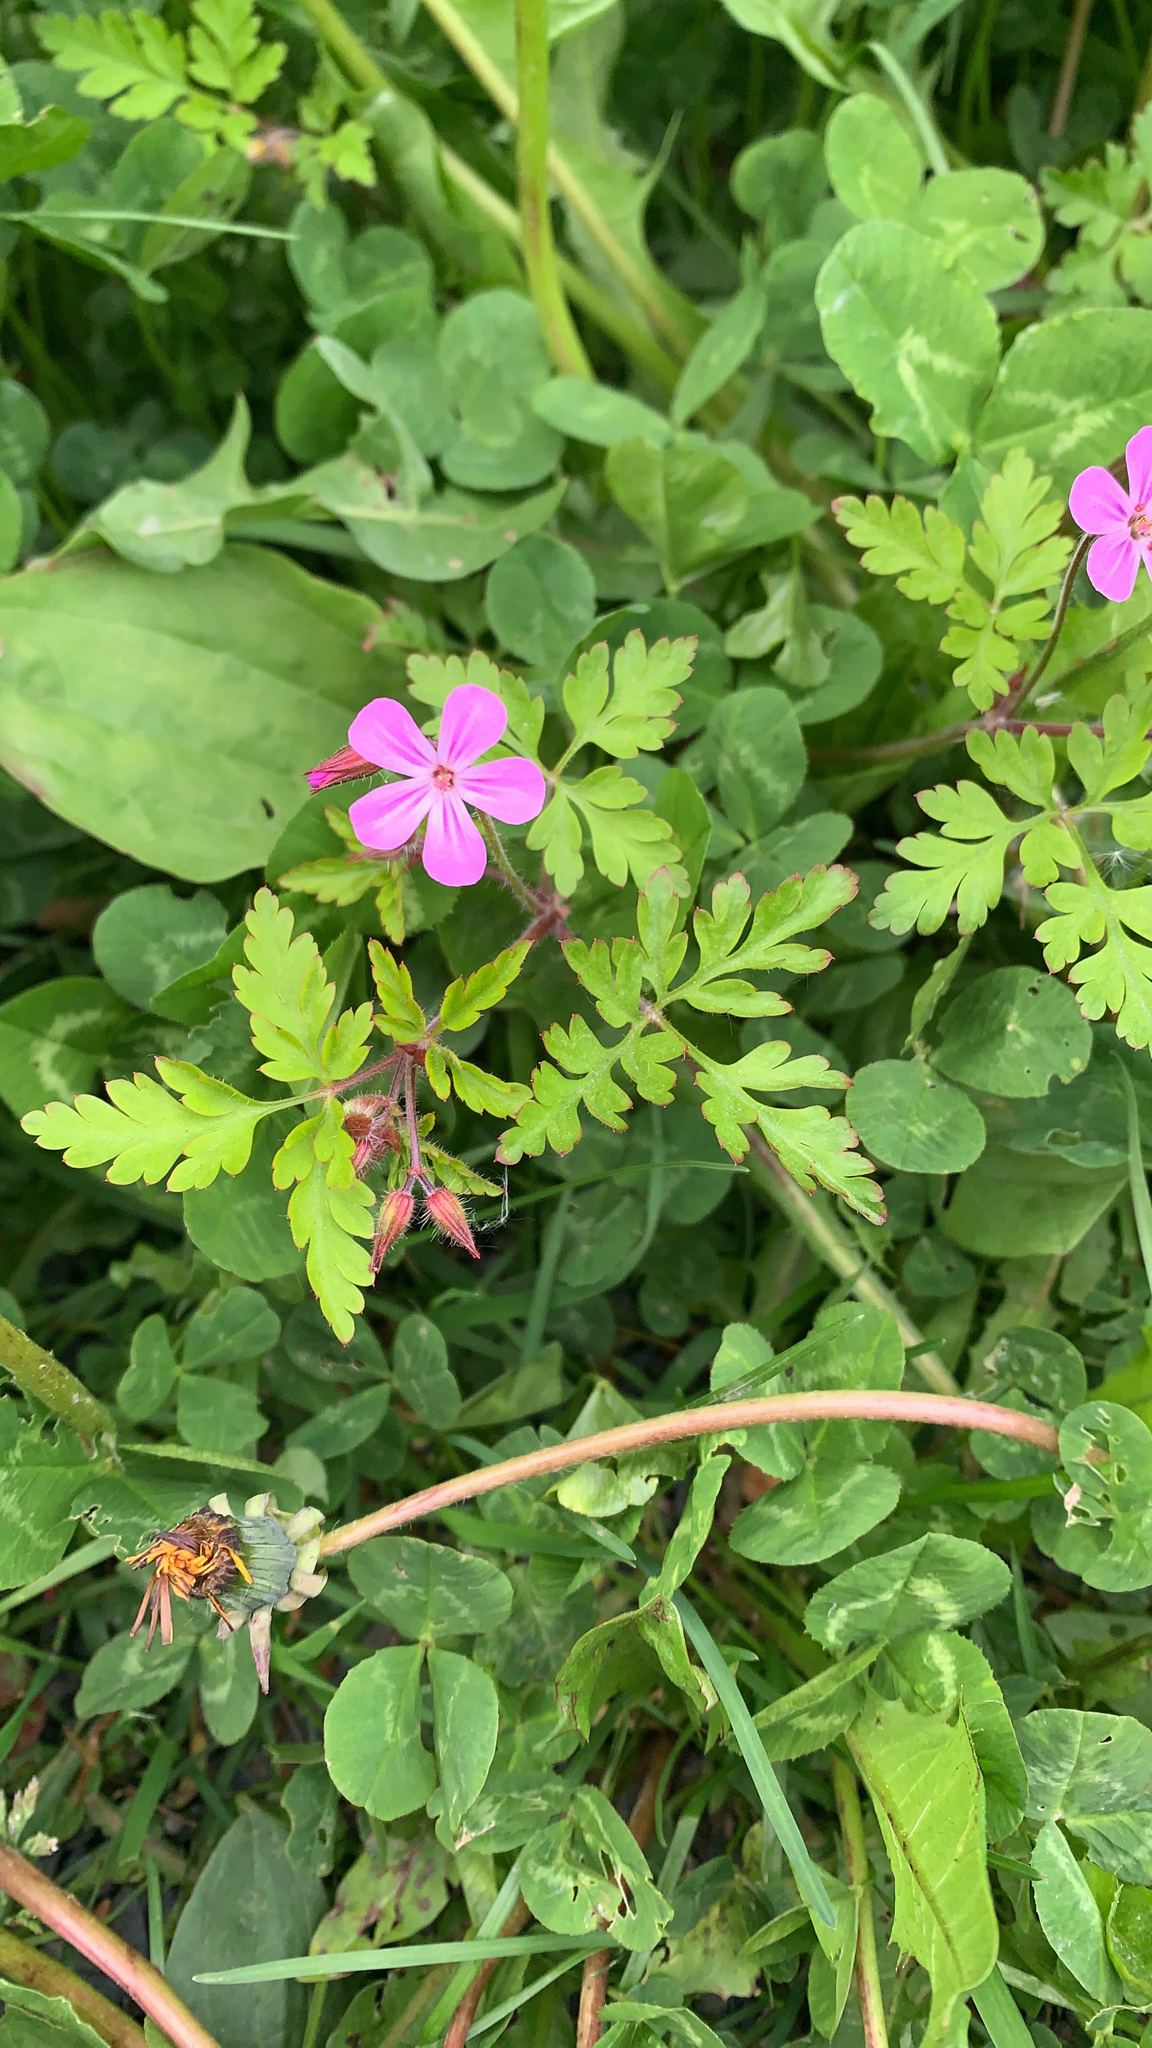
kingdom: Plantae
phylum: Tracheophyta
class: Magnoliopsida
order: Geraniales
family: Geraniaceae
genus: Geranium
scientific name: Geranium robertianum
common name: Herb-robert
